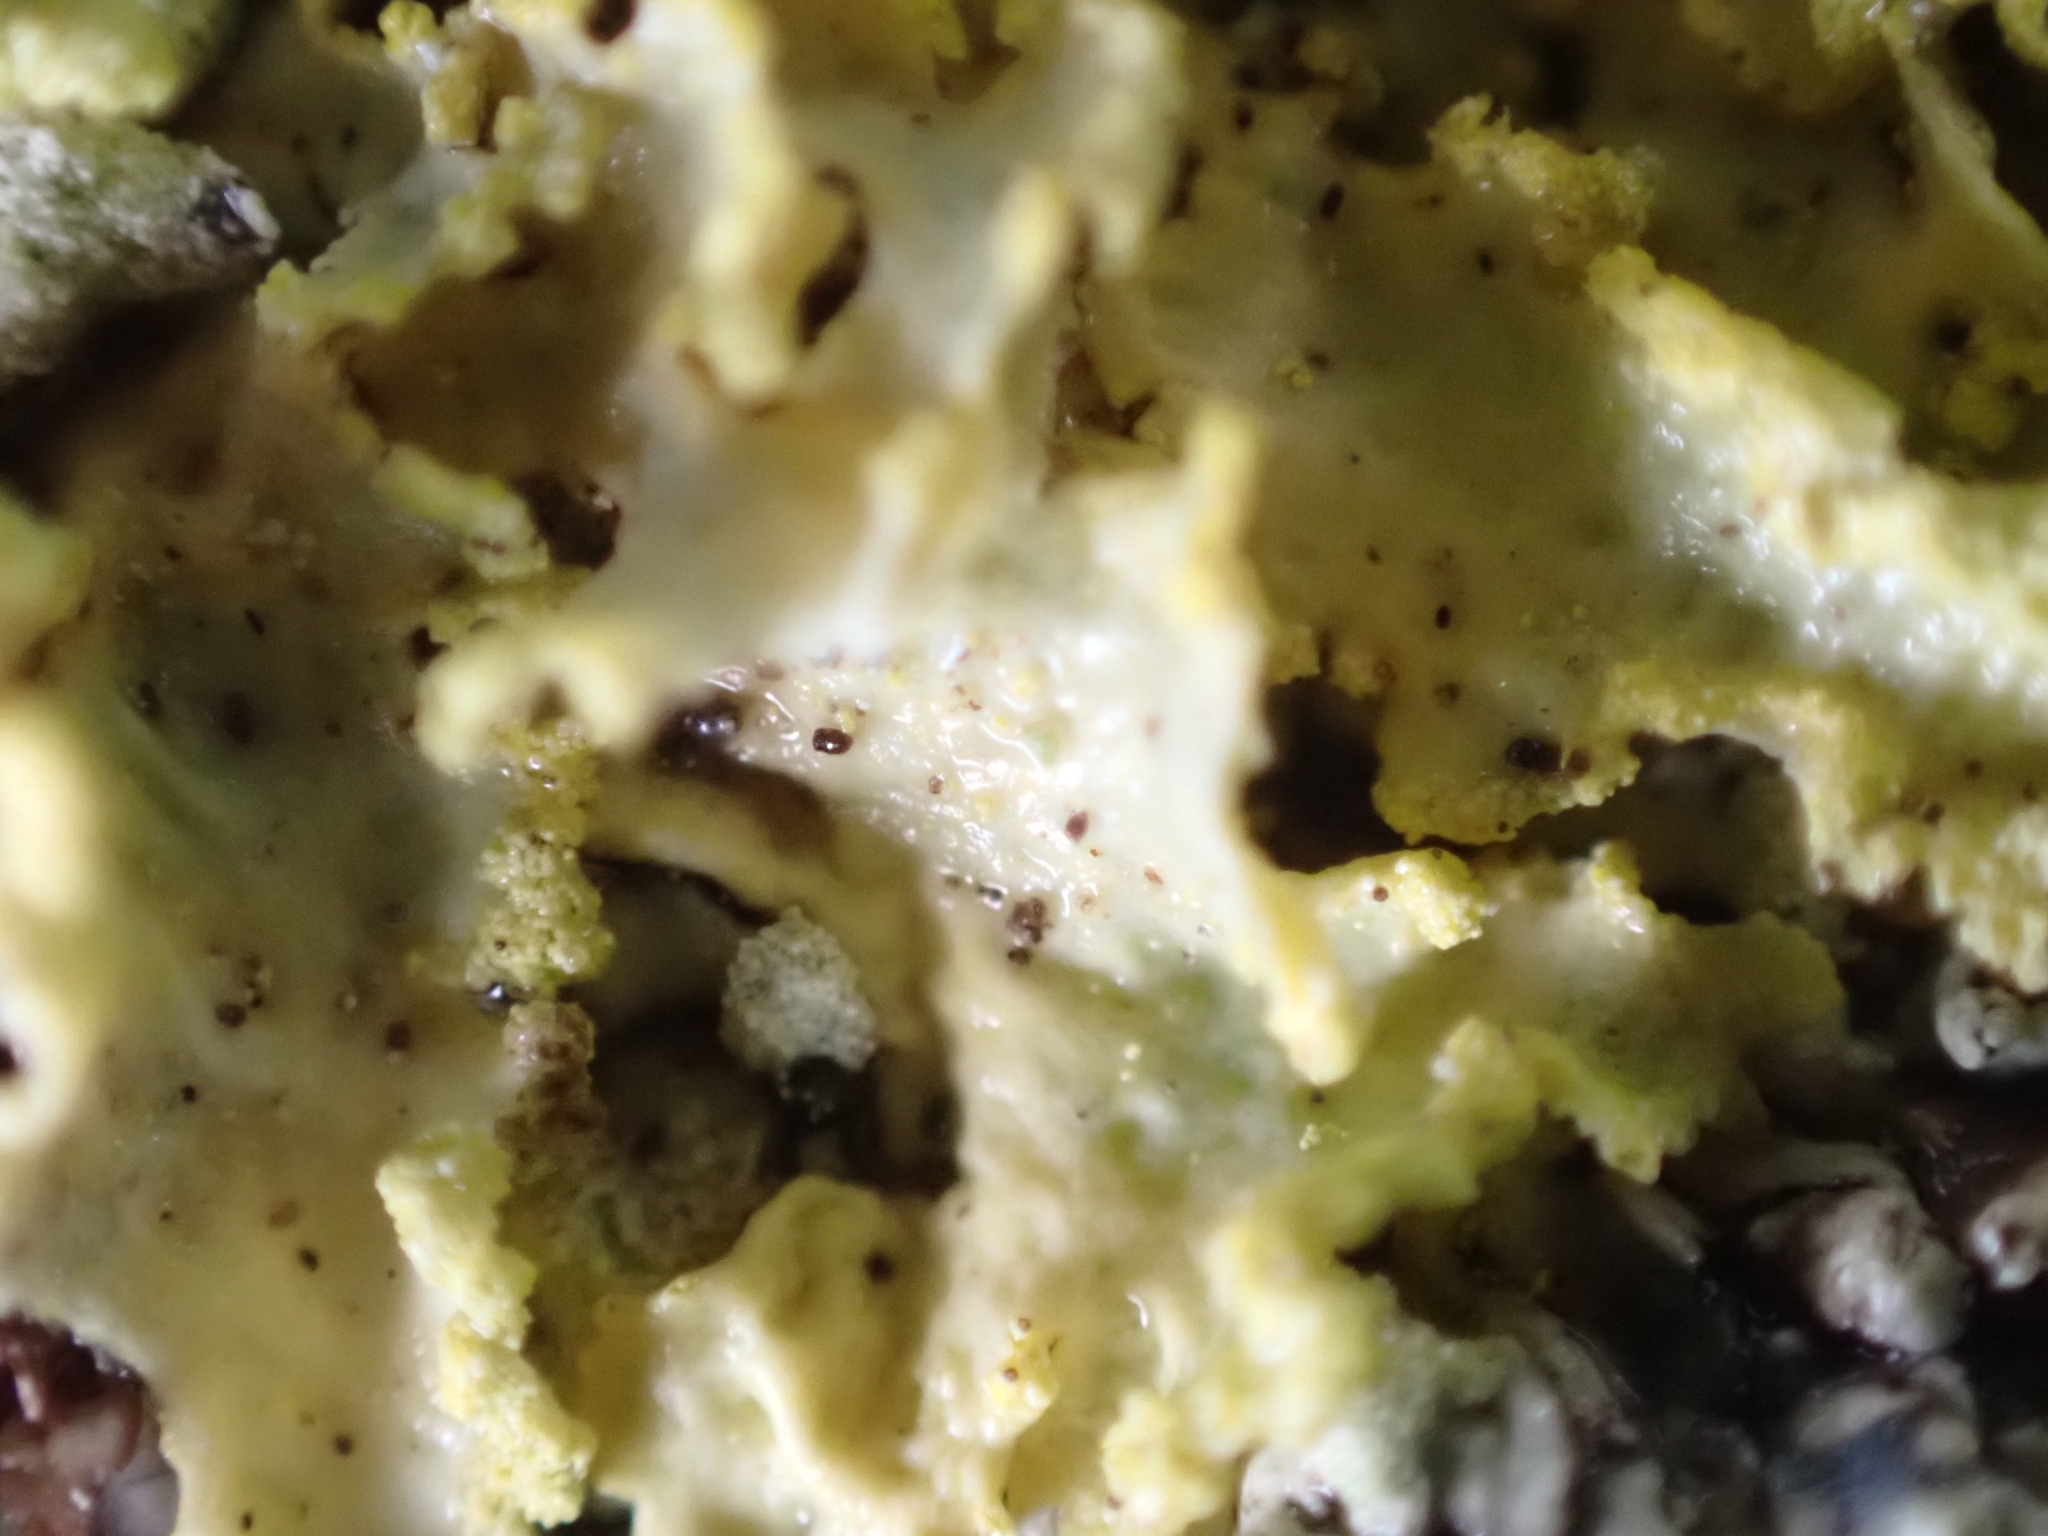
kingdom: Fungi
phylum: Ascomycota
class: Lecanoromycetes
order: Lecanorales
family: Parmeliaceae
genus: Vulpicida
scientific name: Vulpicida pinastri
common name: Powdered sunshine lichen
